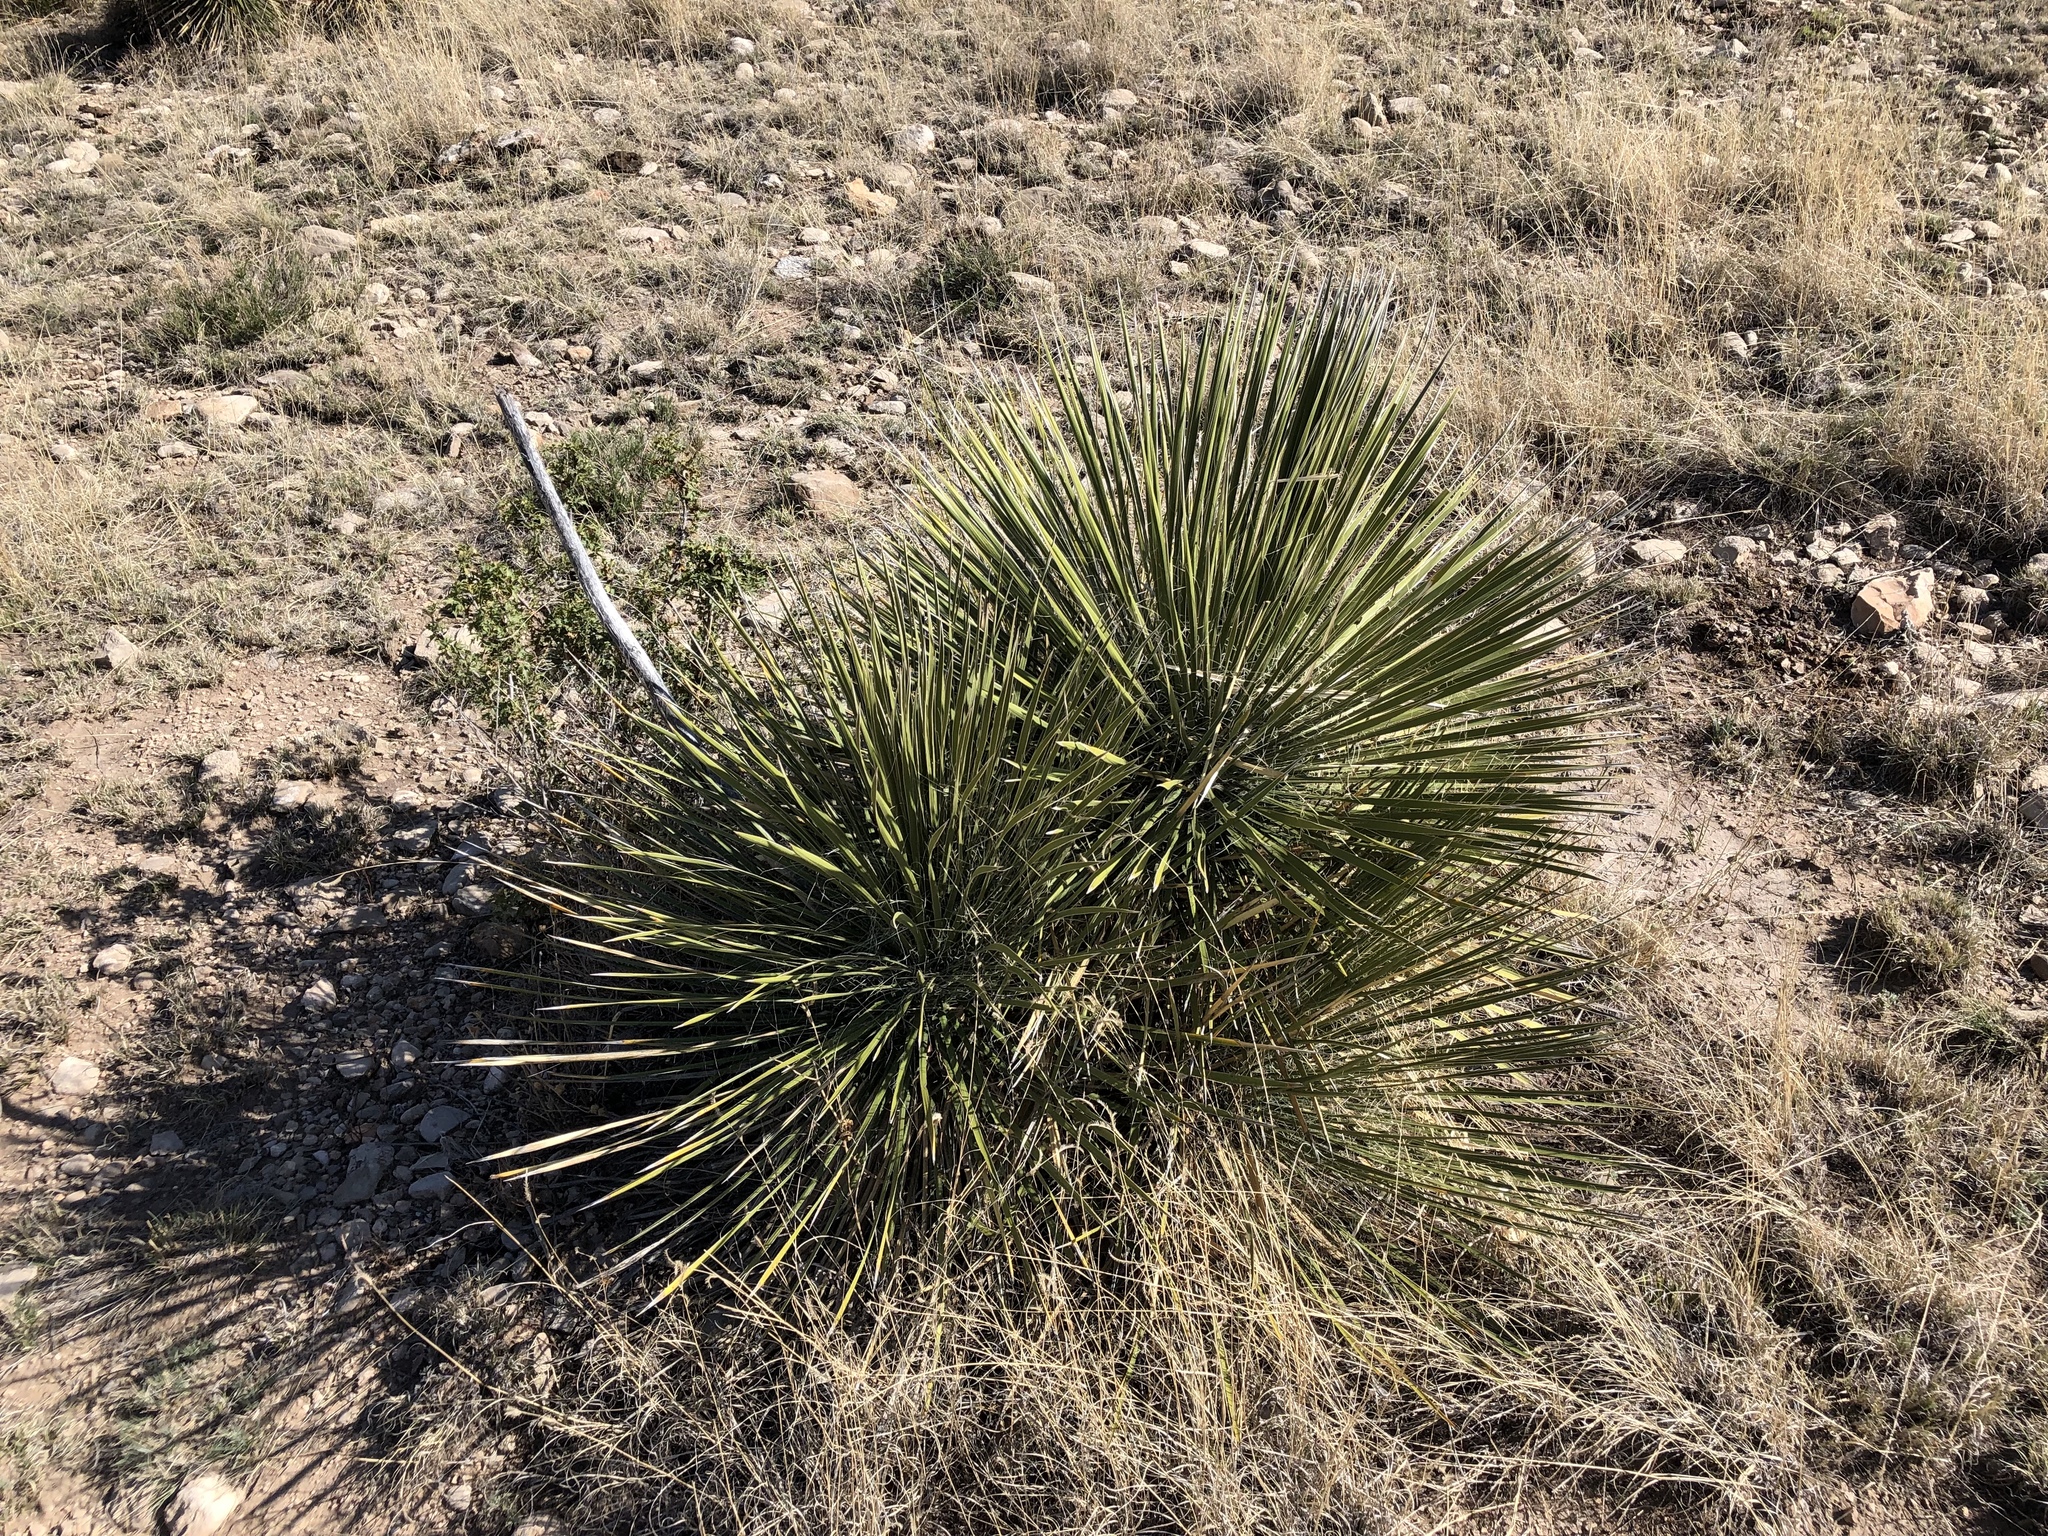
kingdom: Plantae
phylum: Tracheophyta
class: Liliopsida
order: Asparagales
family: Asparagaceae
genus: Yucca
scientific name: Yucca elata
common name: Palmella
